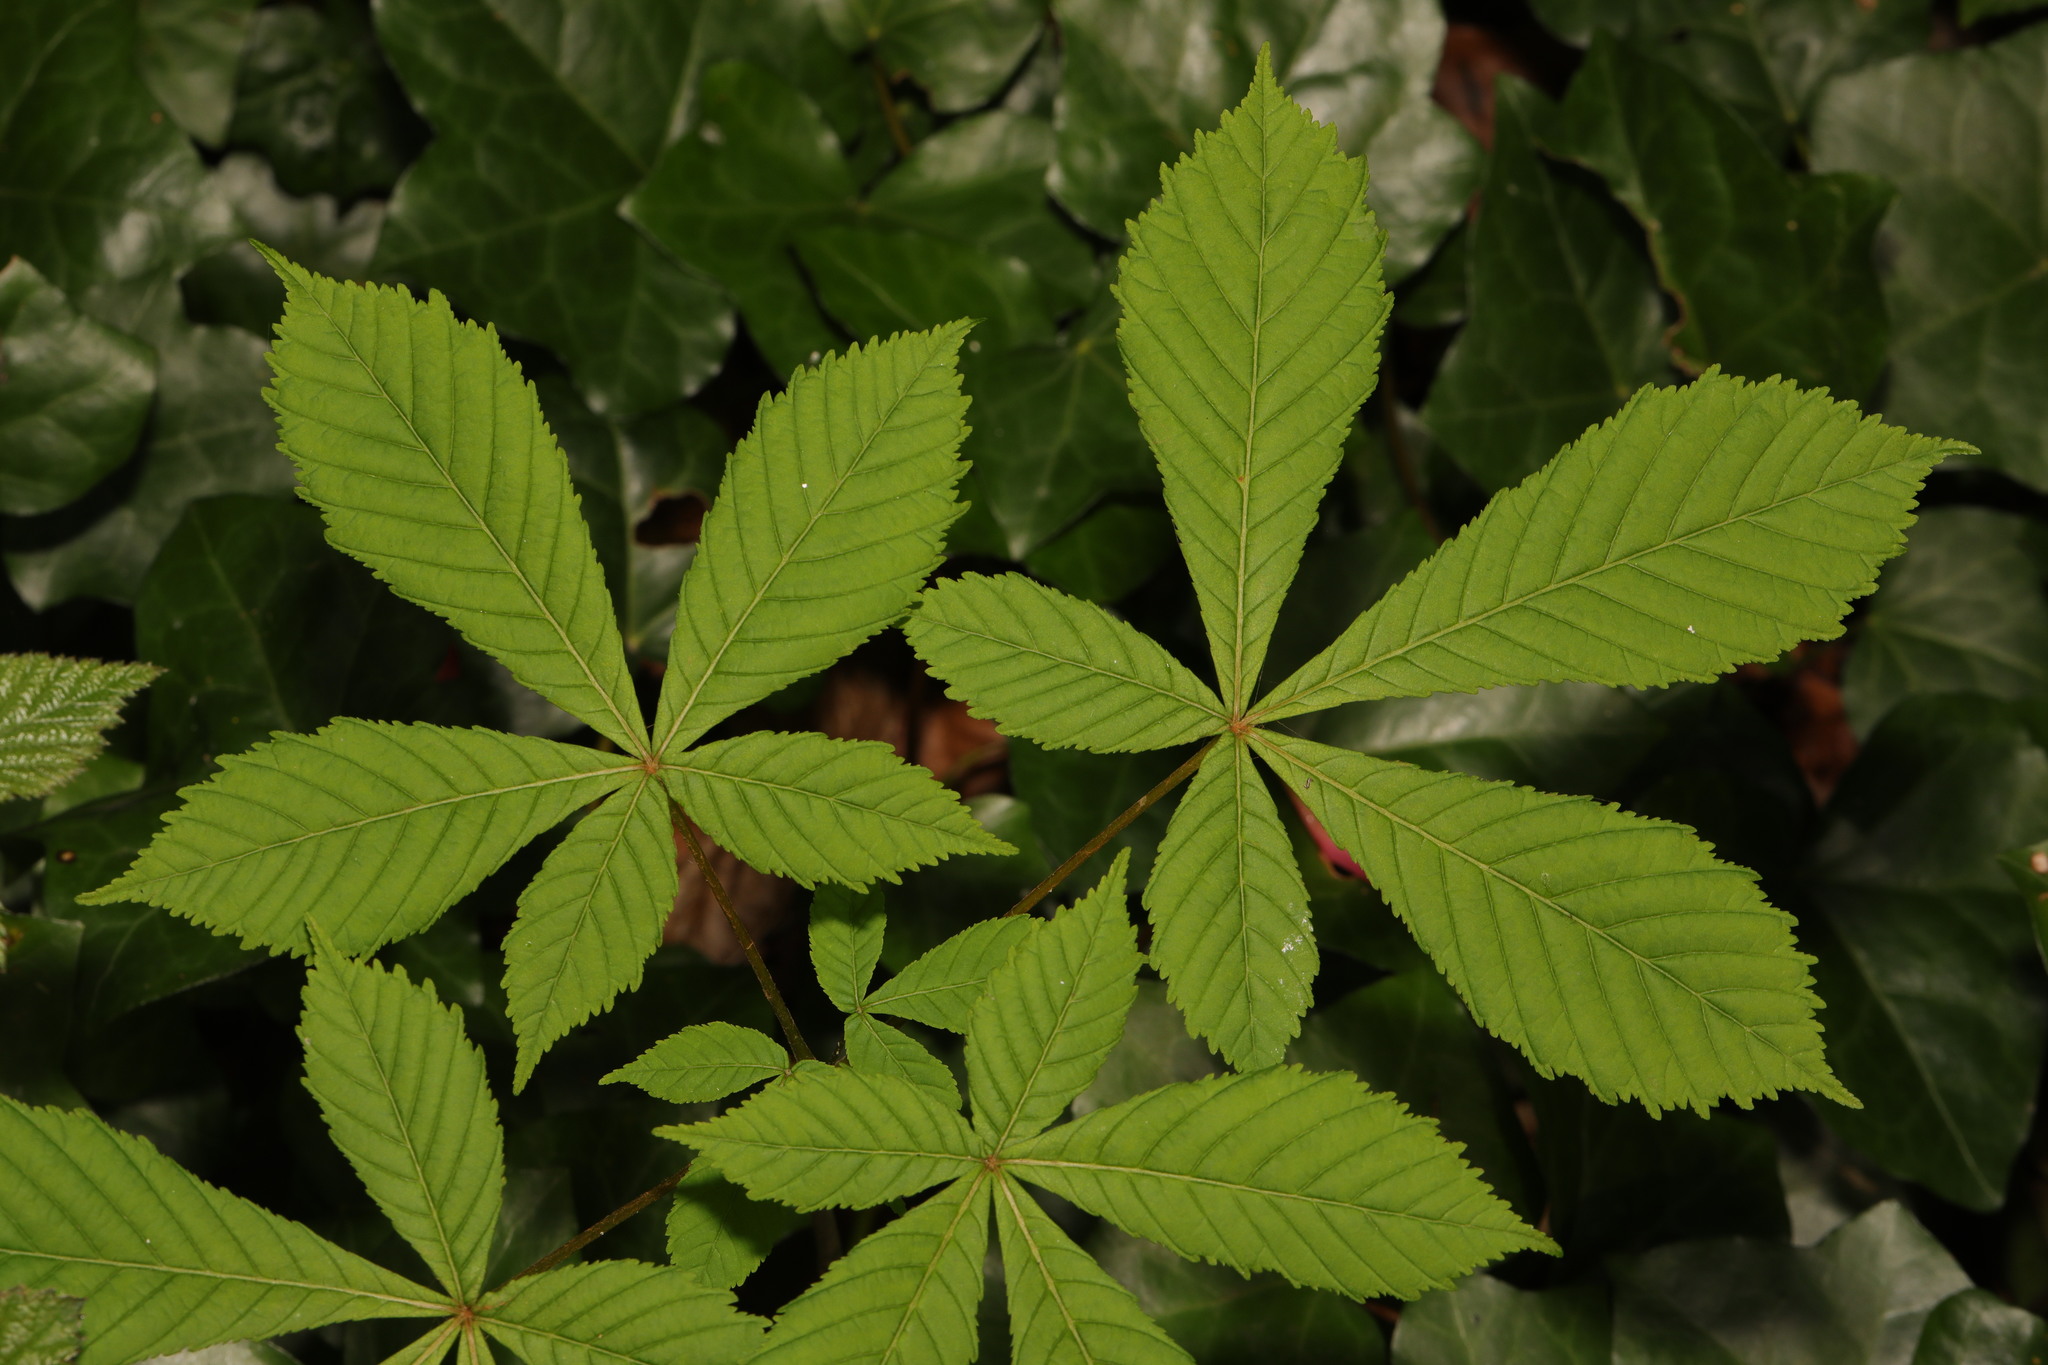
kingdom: Plantae
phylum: Tracheophyta
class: Magnoliopsida
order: Sapindales
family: Sapindaceae
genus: Aesculus
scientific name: Aesculus hippocastanum
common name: Horse-chestnut
